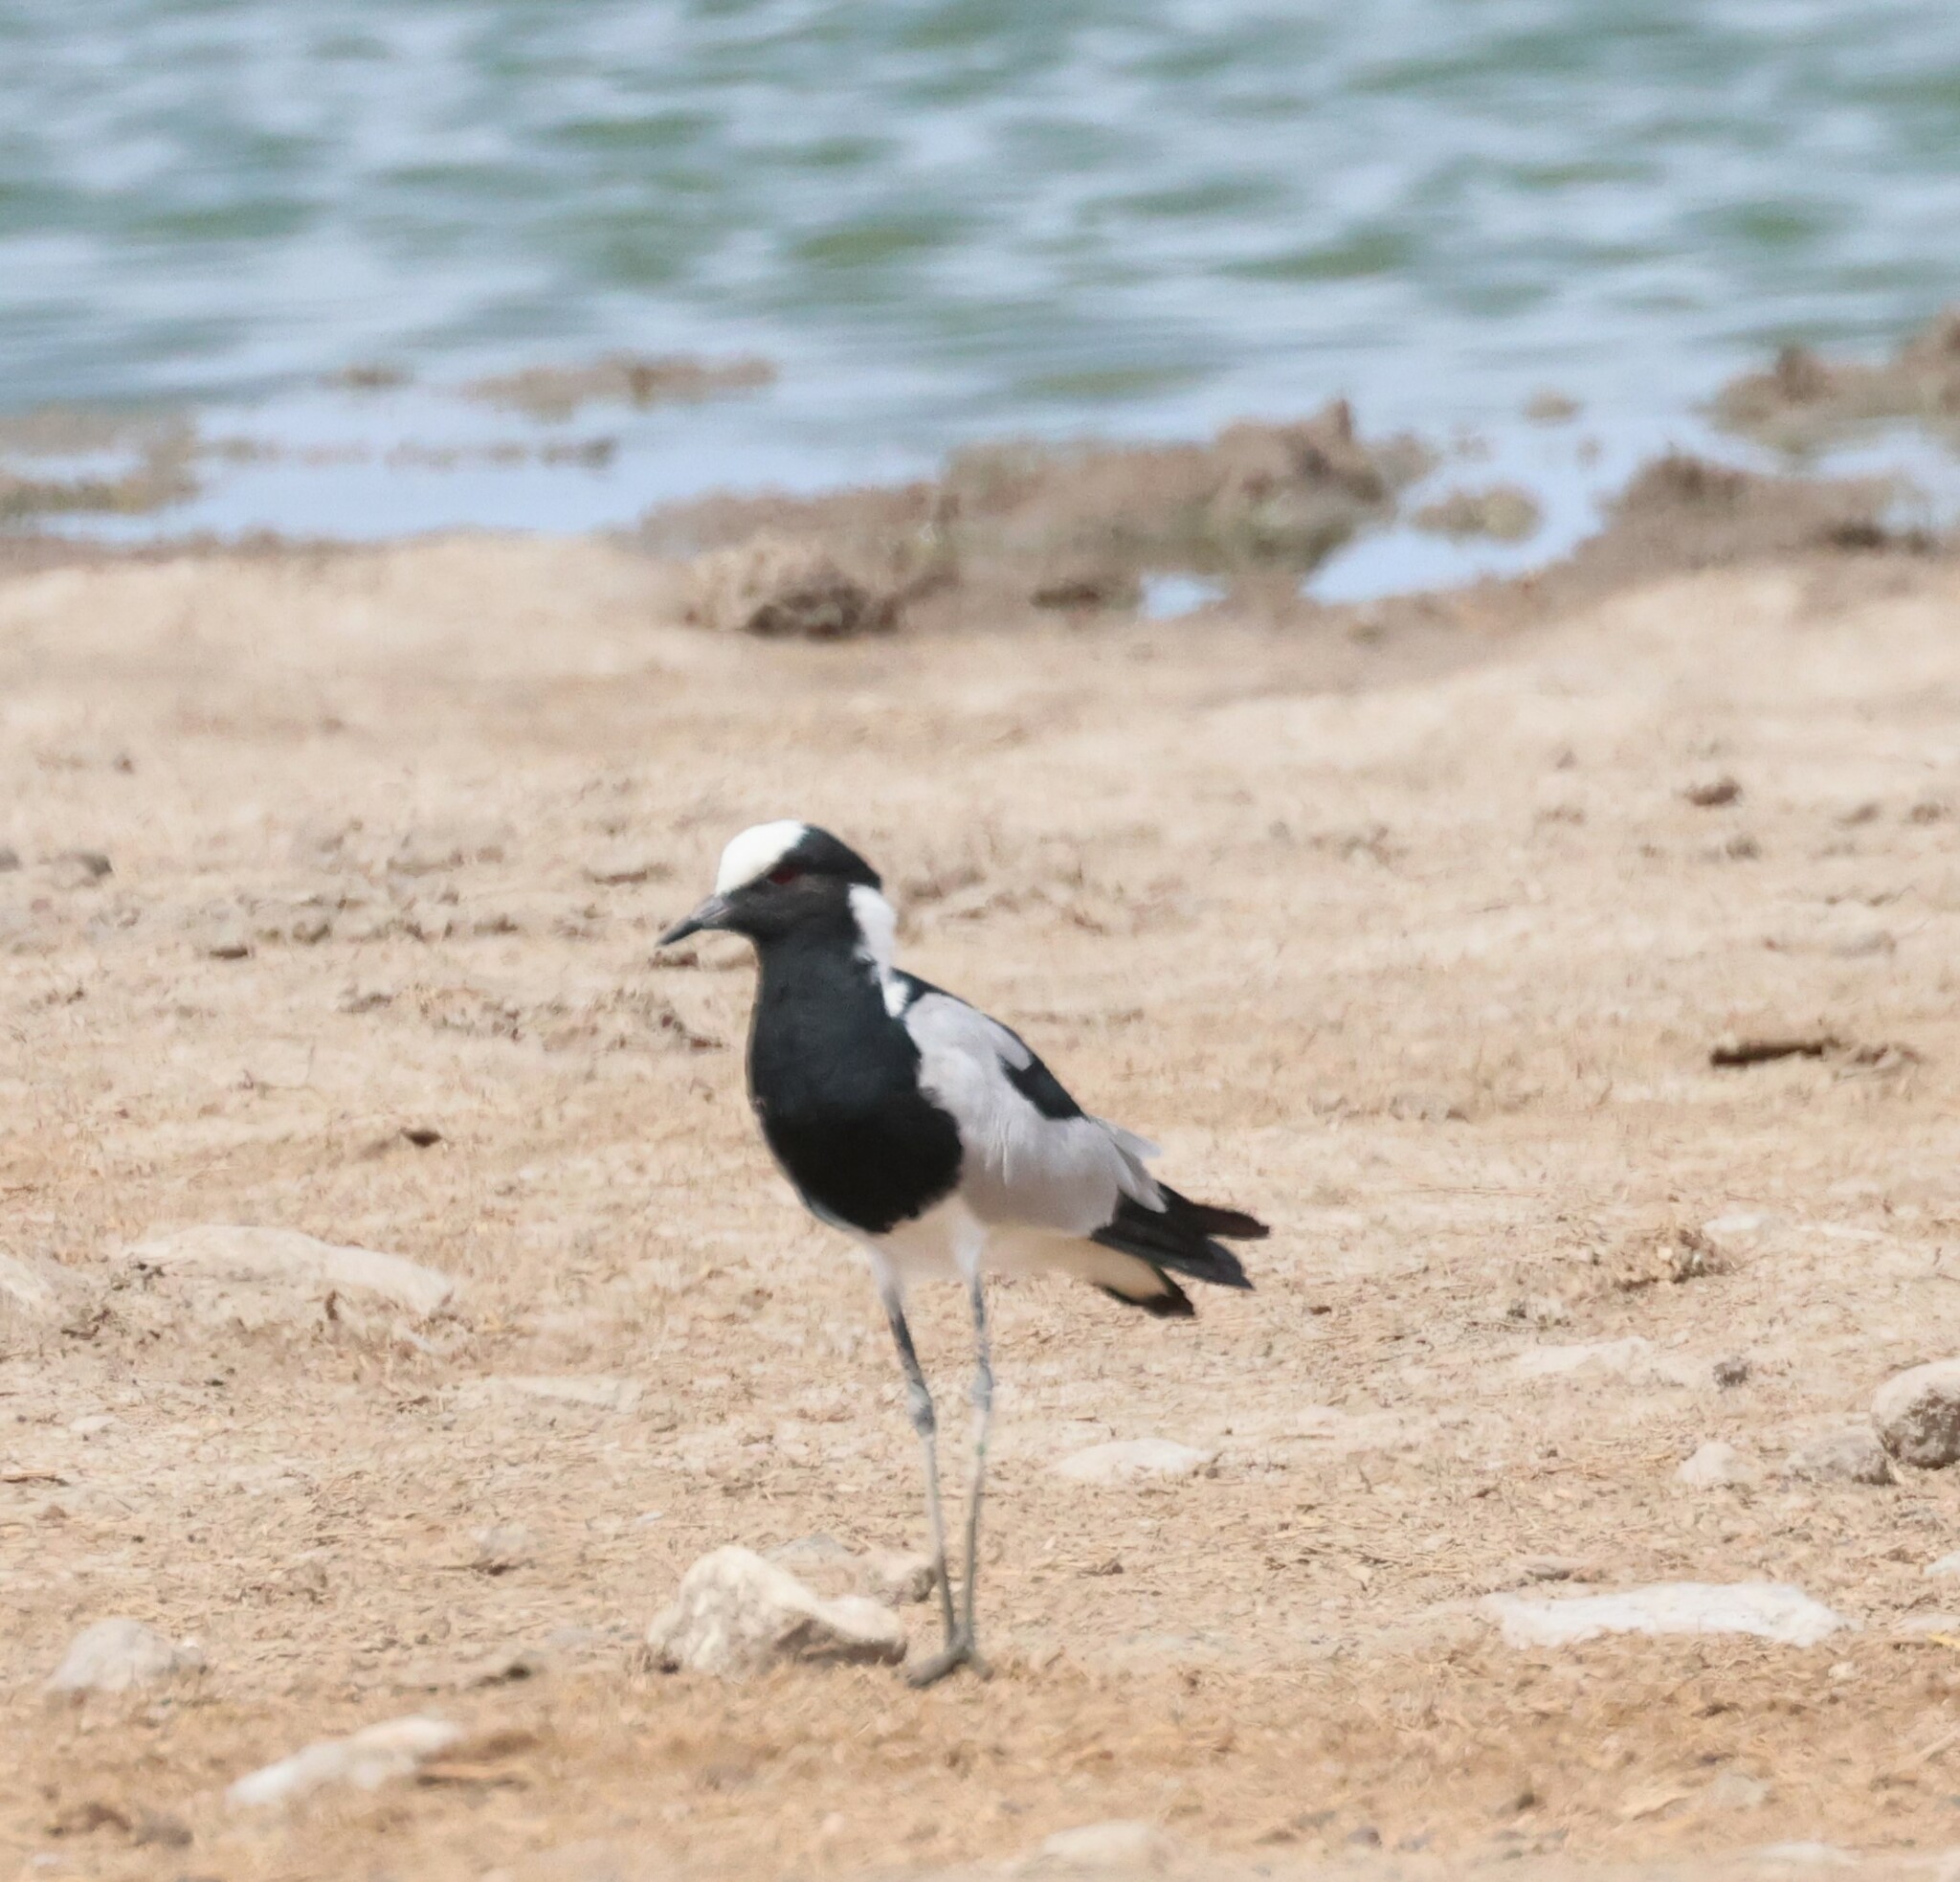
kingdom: Animalia
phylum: Chordata
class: Aves
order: Charadriiformes
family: Charadriidae
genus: Vanellus
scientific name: Vanellus armatus
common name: Blacksmith lapwing
